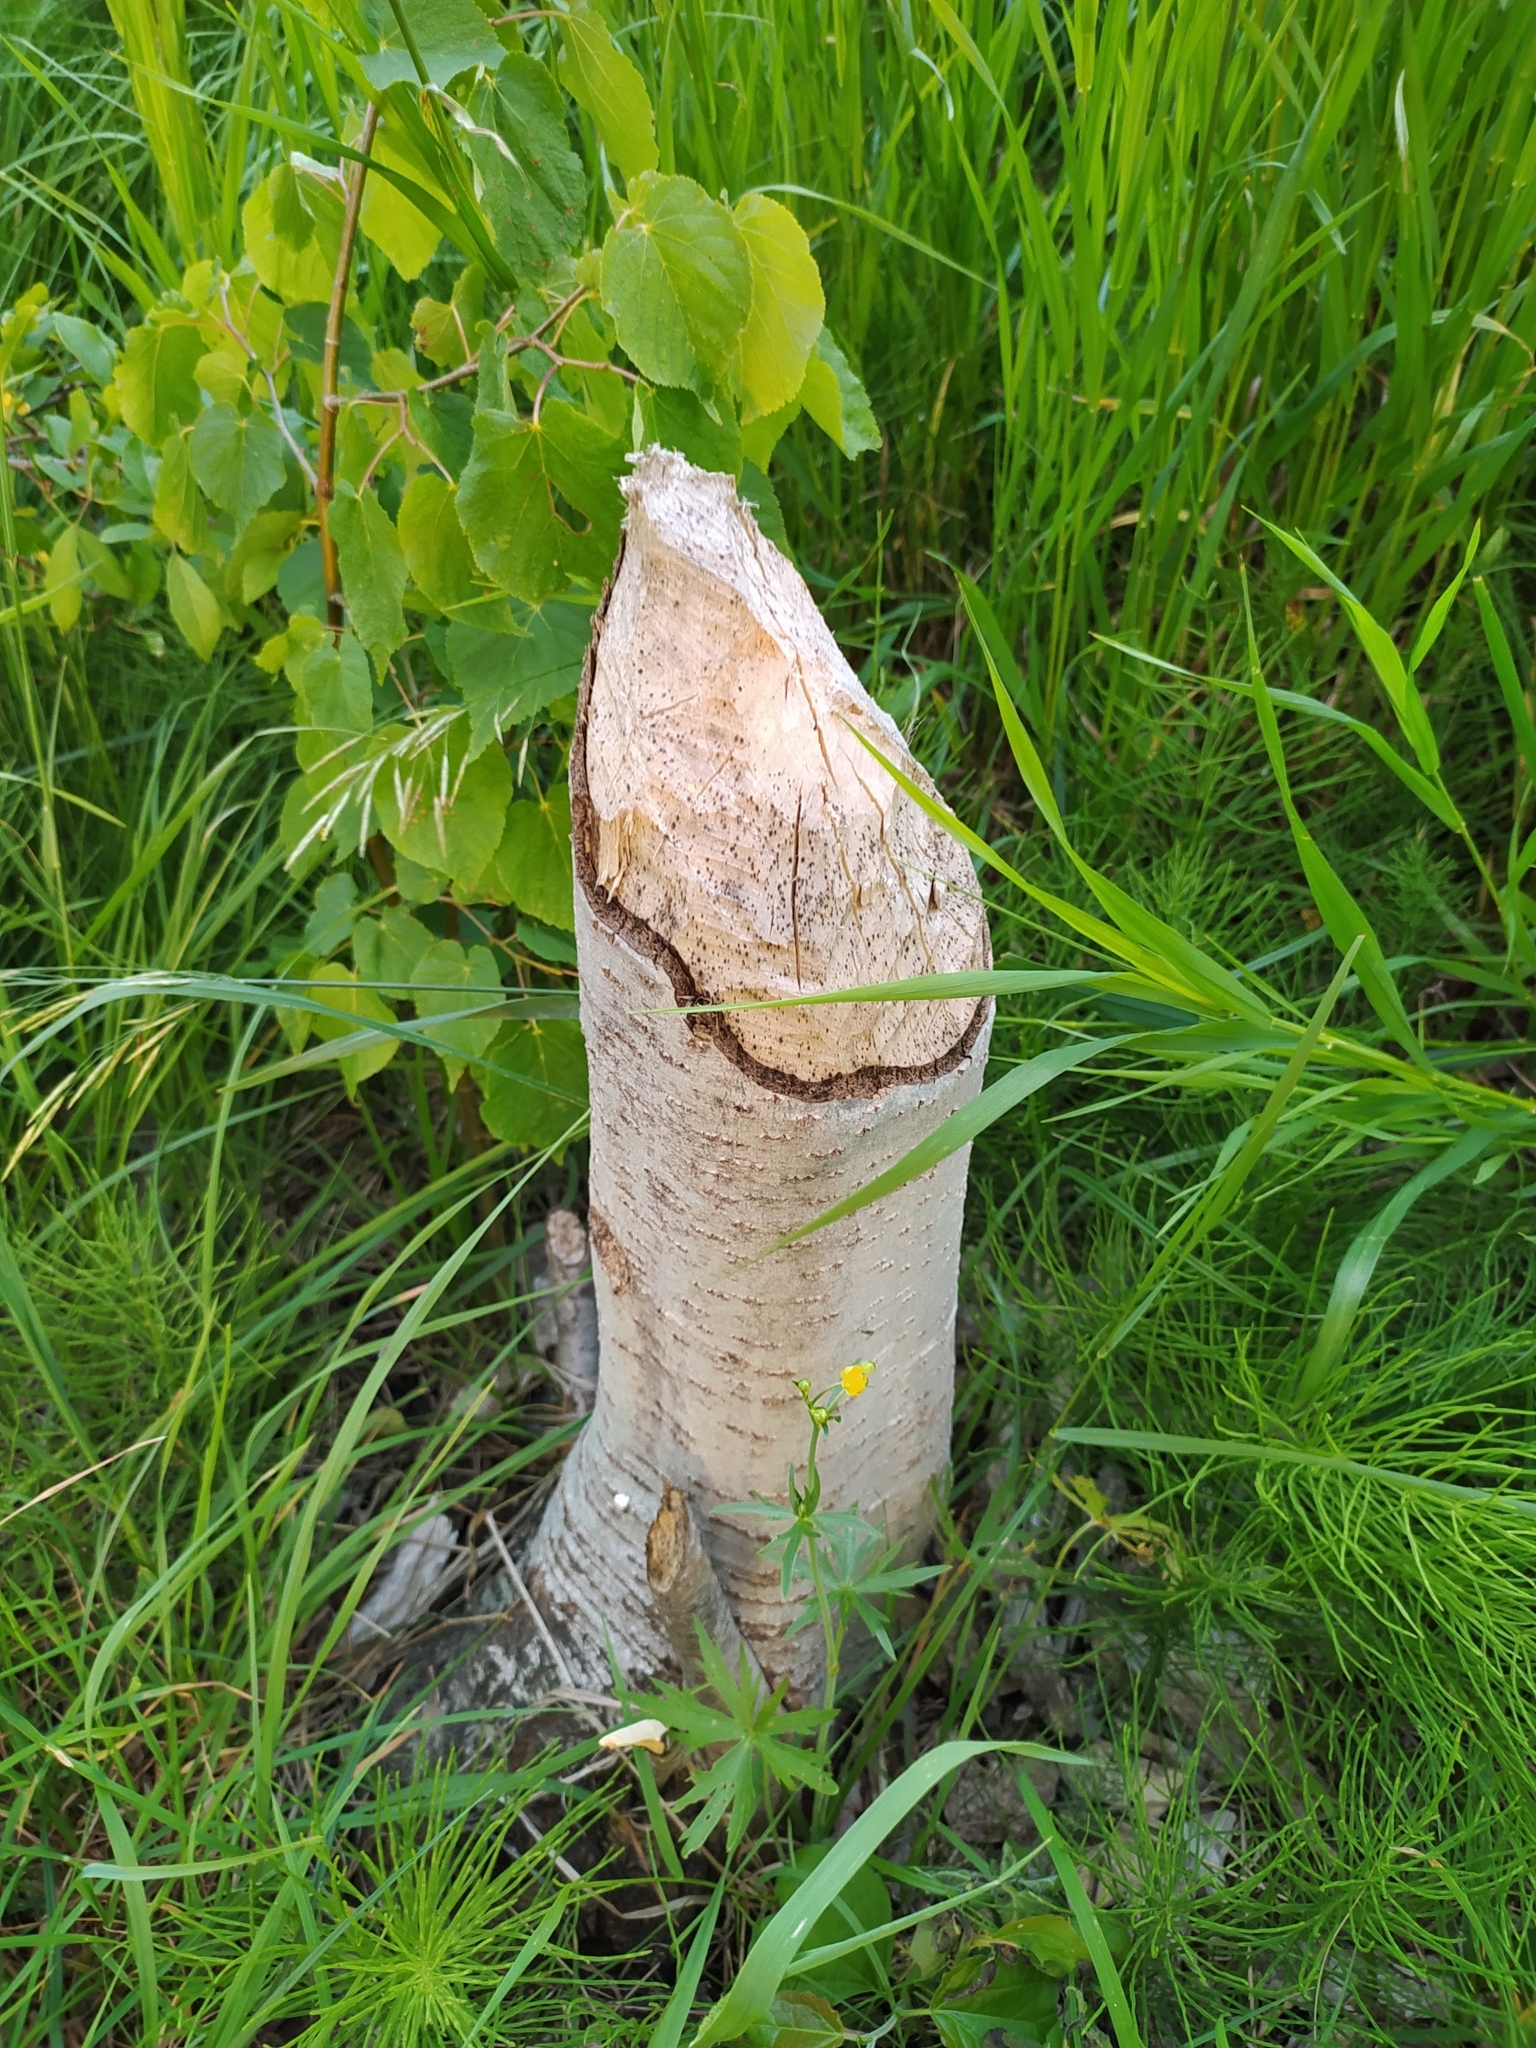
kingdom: Animalia
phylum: Chordata
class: Mammalia
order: Rodentia
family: Castoridae
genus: Castor
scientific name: Castor fiber
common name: Eurasian beaver
